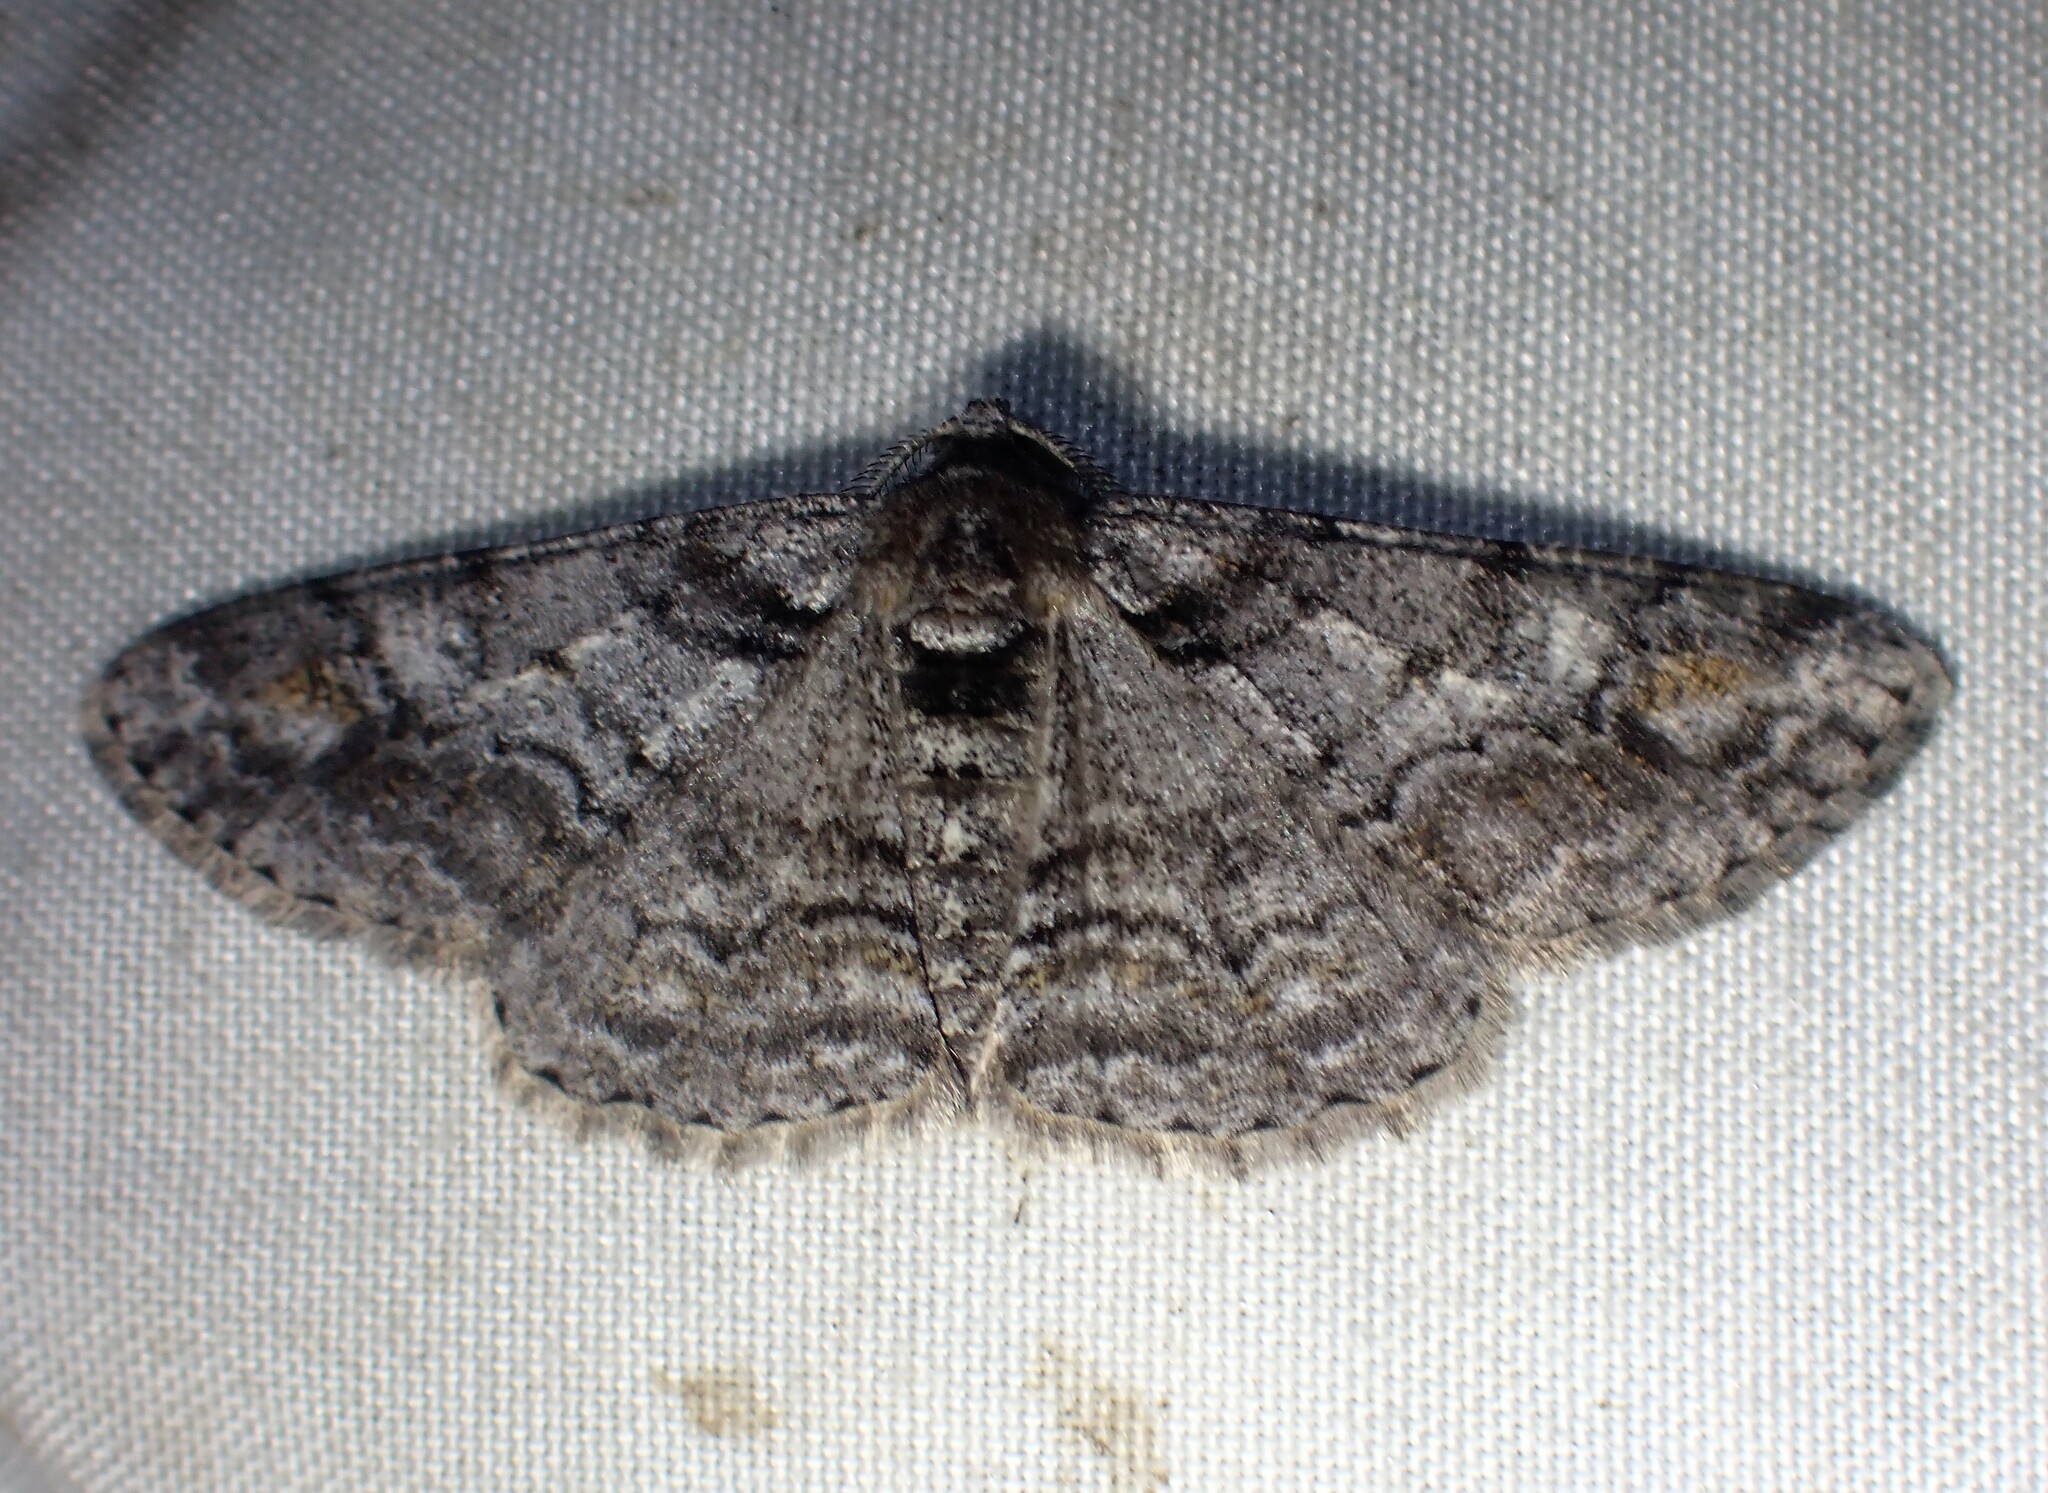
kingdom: Animalia
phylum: Arthropoda
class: Insecta
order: Lepidoptera
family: Geometridae
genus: Cleora
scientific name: Cleora sublunaria
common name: Double-lined gray
